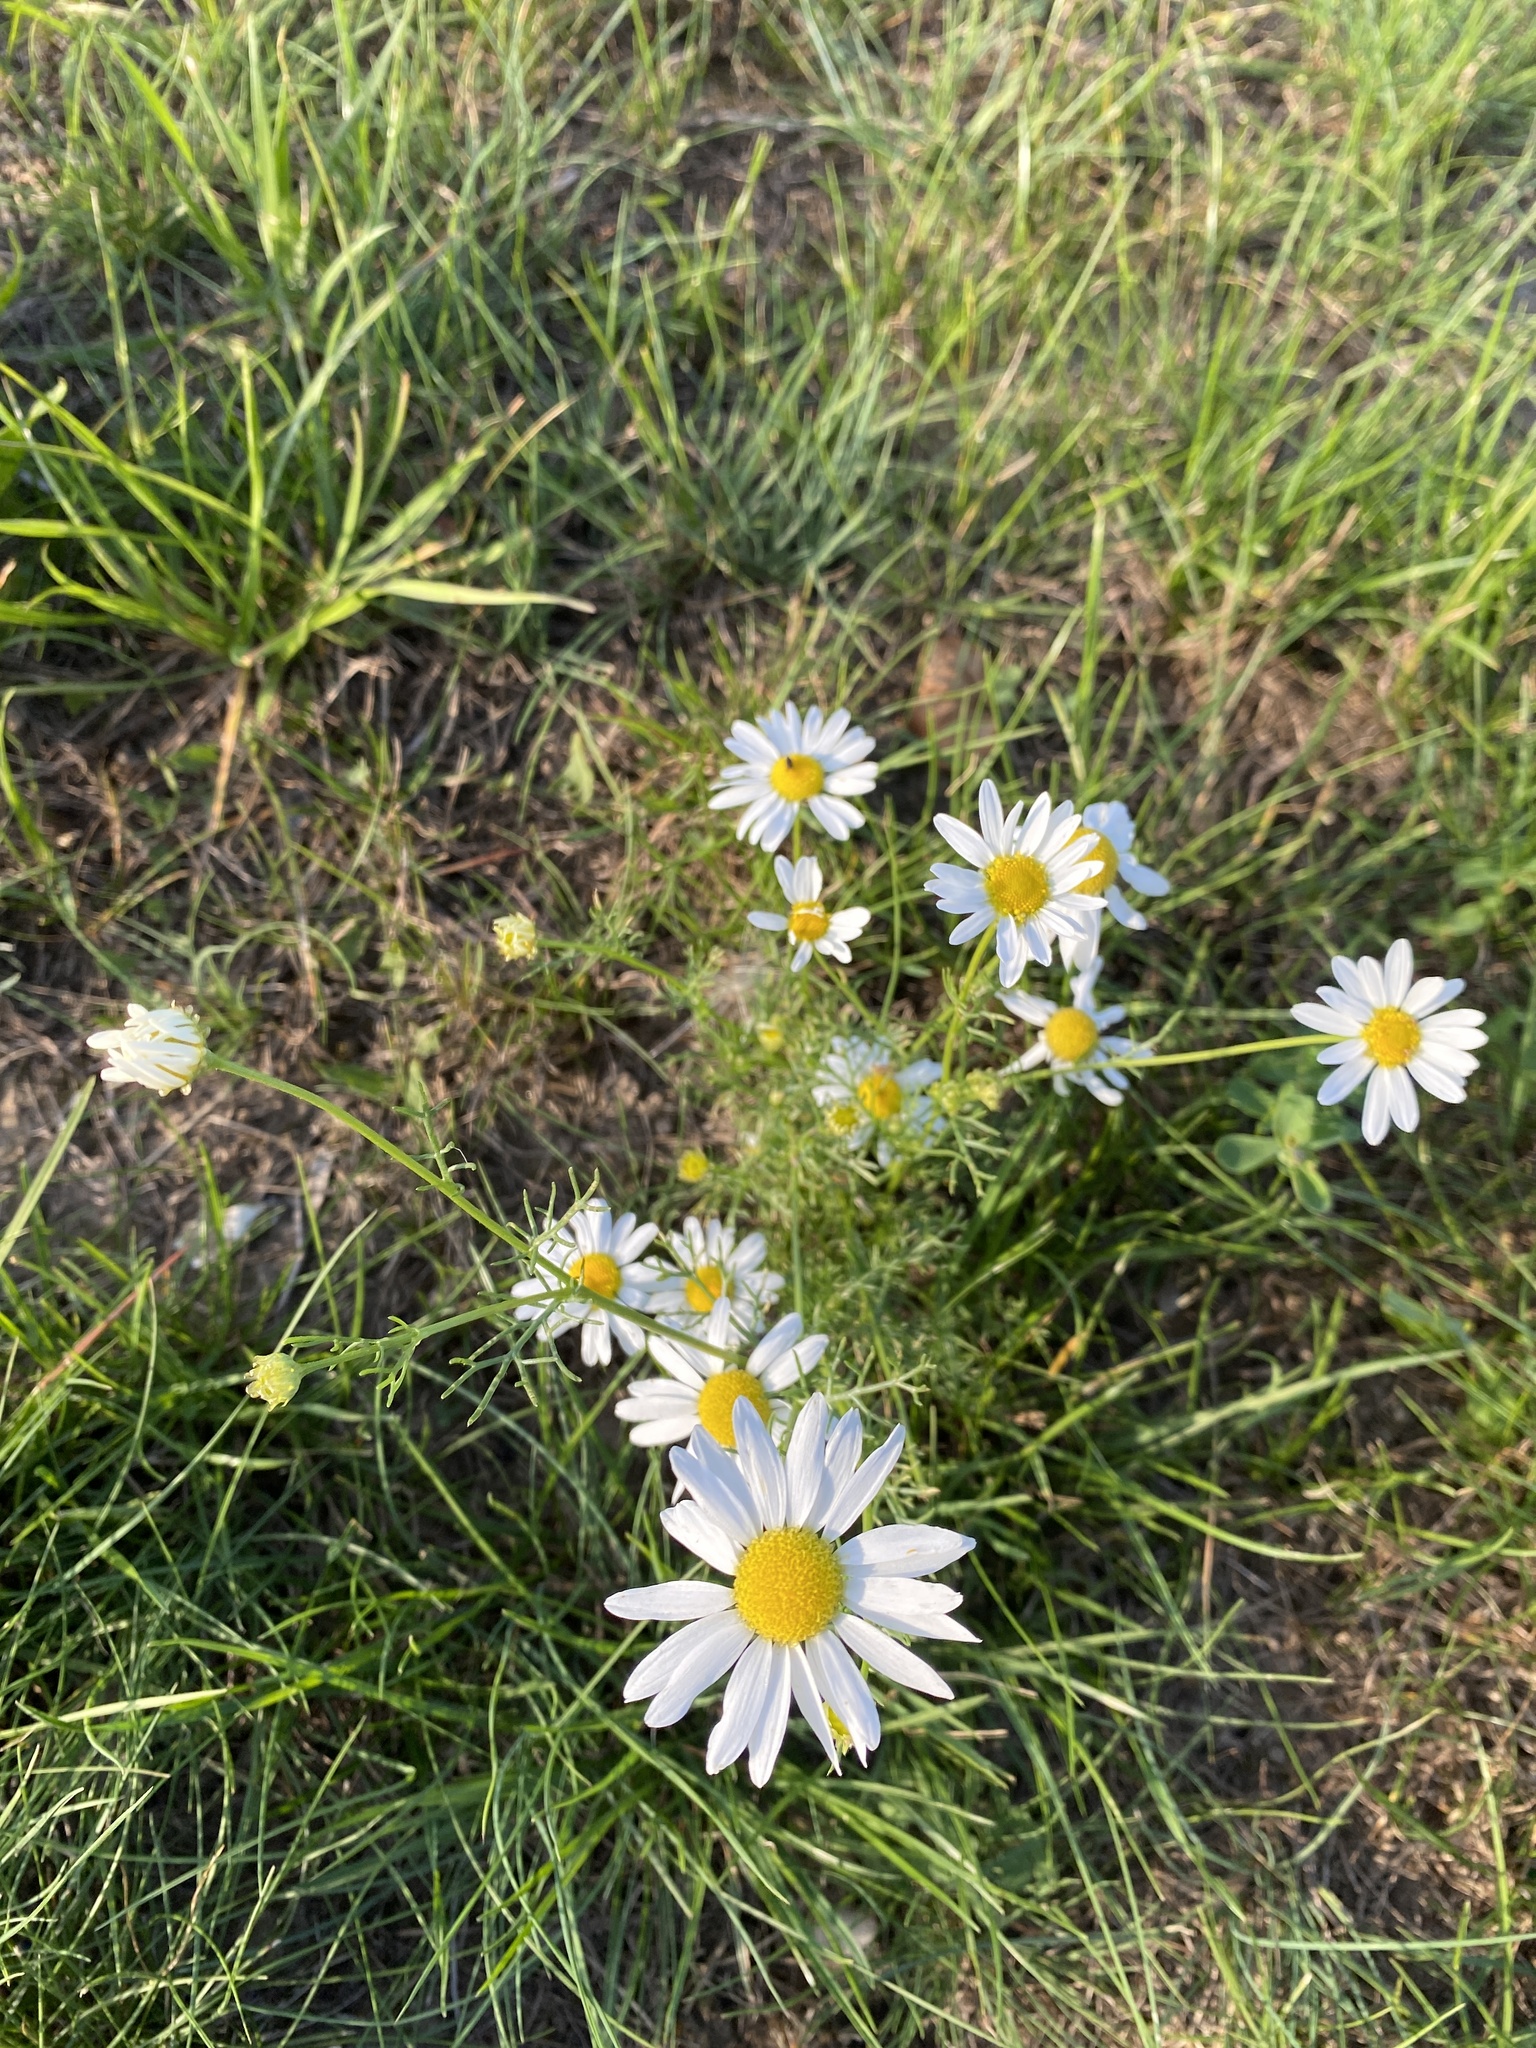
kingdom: Plantae
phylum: Tracheophyta
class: Magnoliopsida
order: Asterales
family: Asteraceae
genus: Tripleurospermum
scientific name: Tripleurospermum inodorum
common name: Scentless mayweed
